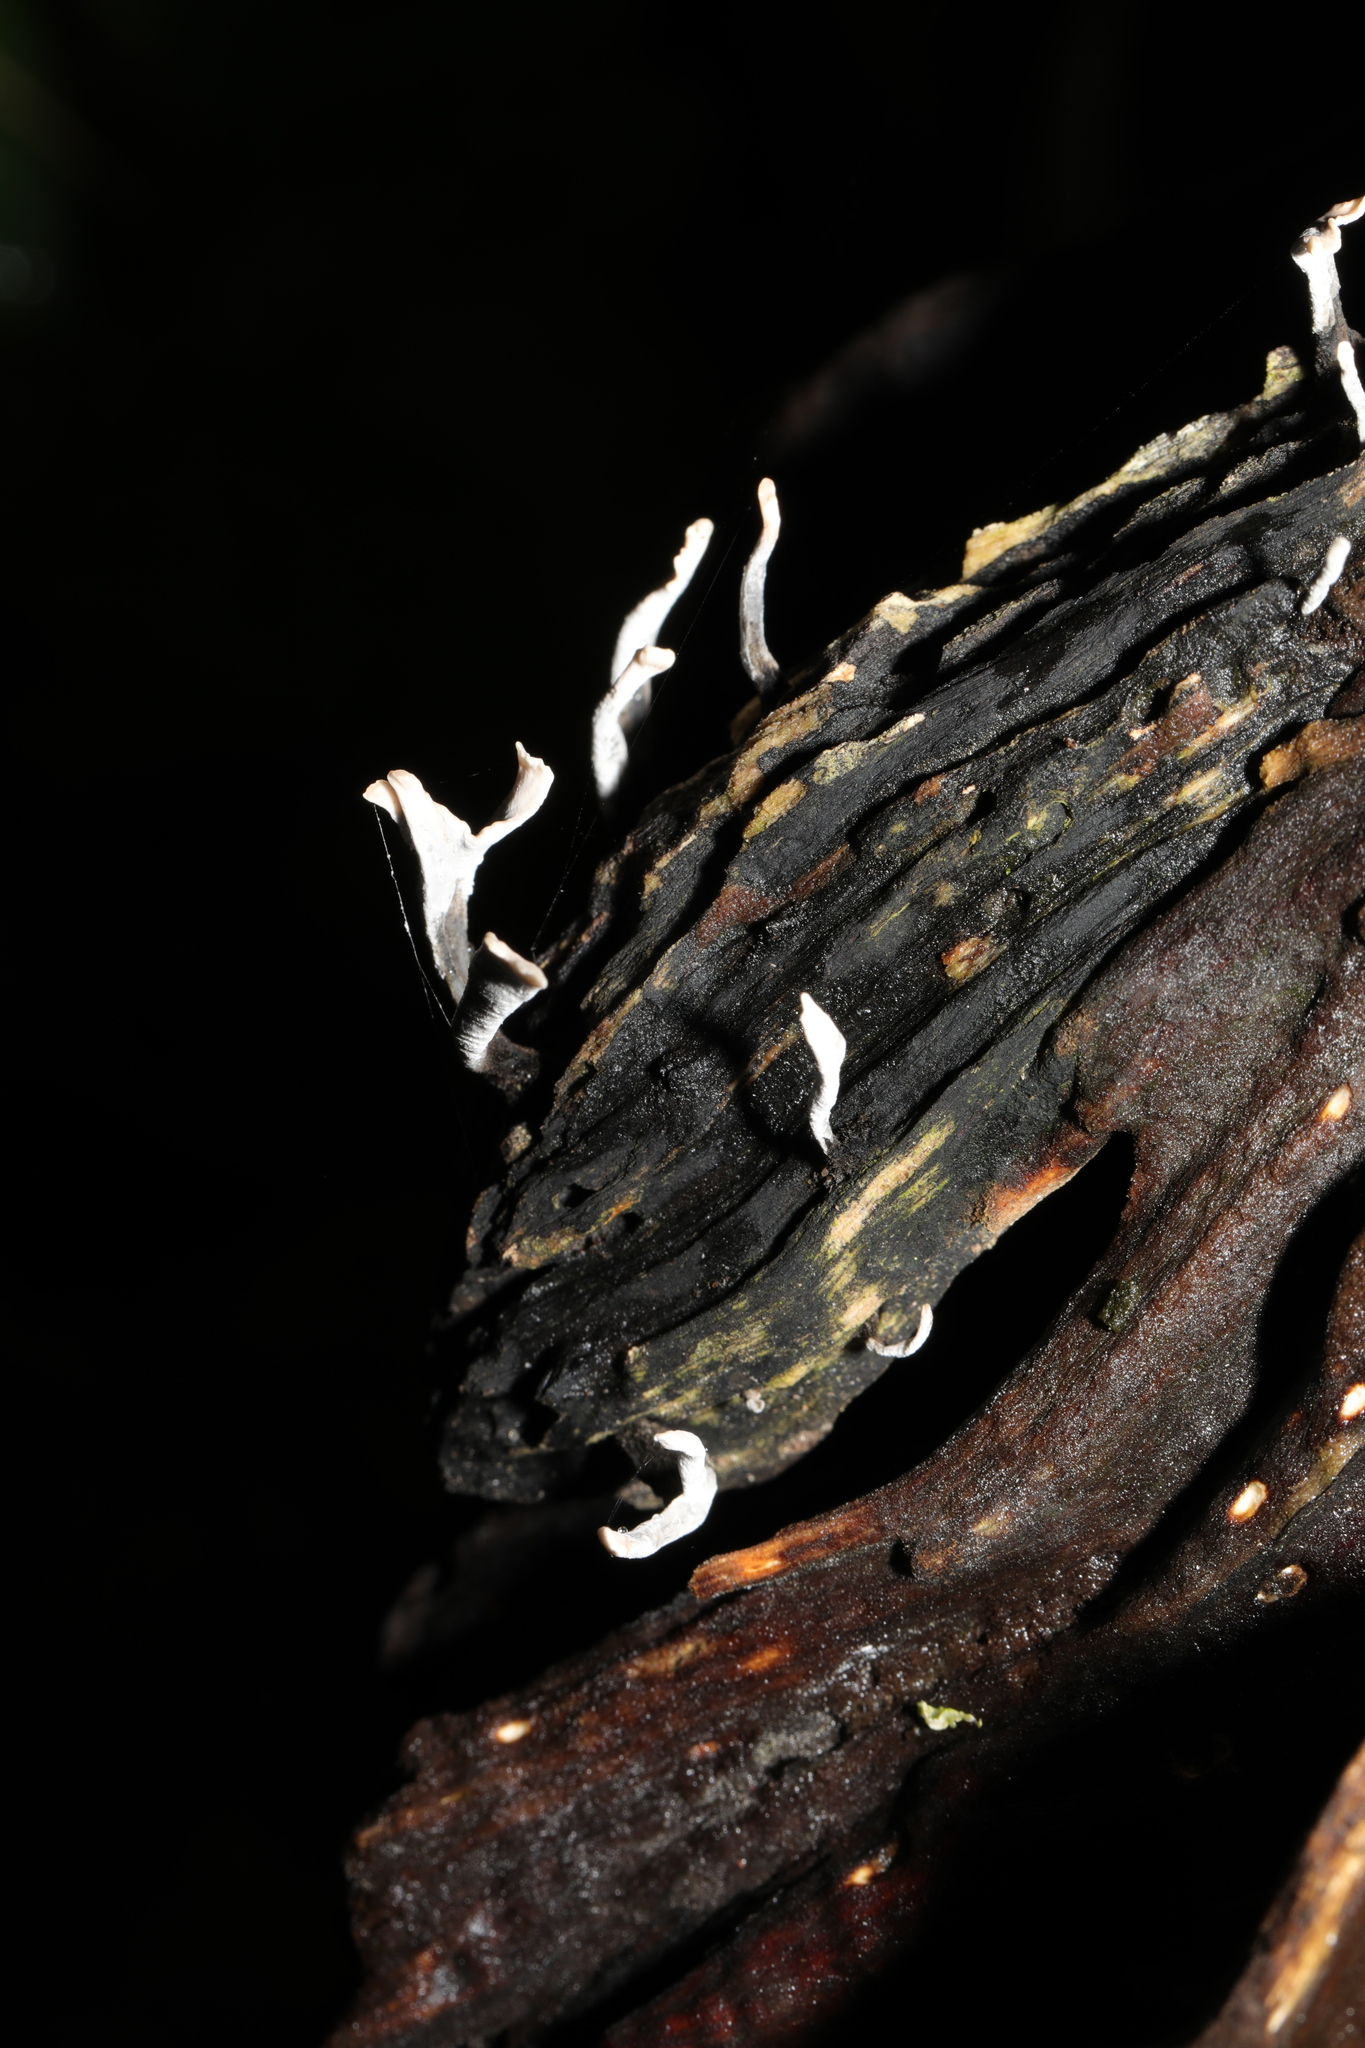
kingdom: Fungi
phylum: Ascomycota
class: Sordariomycetes
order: Xylariales
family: Xylariaceae
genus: Xylaria
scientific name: Xylaria hypoxylon
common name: Candle-snuff fungus
